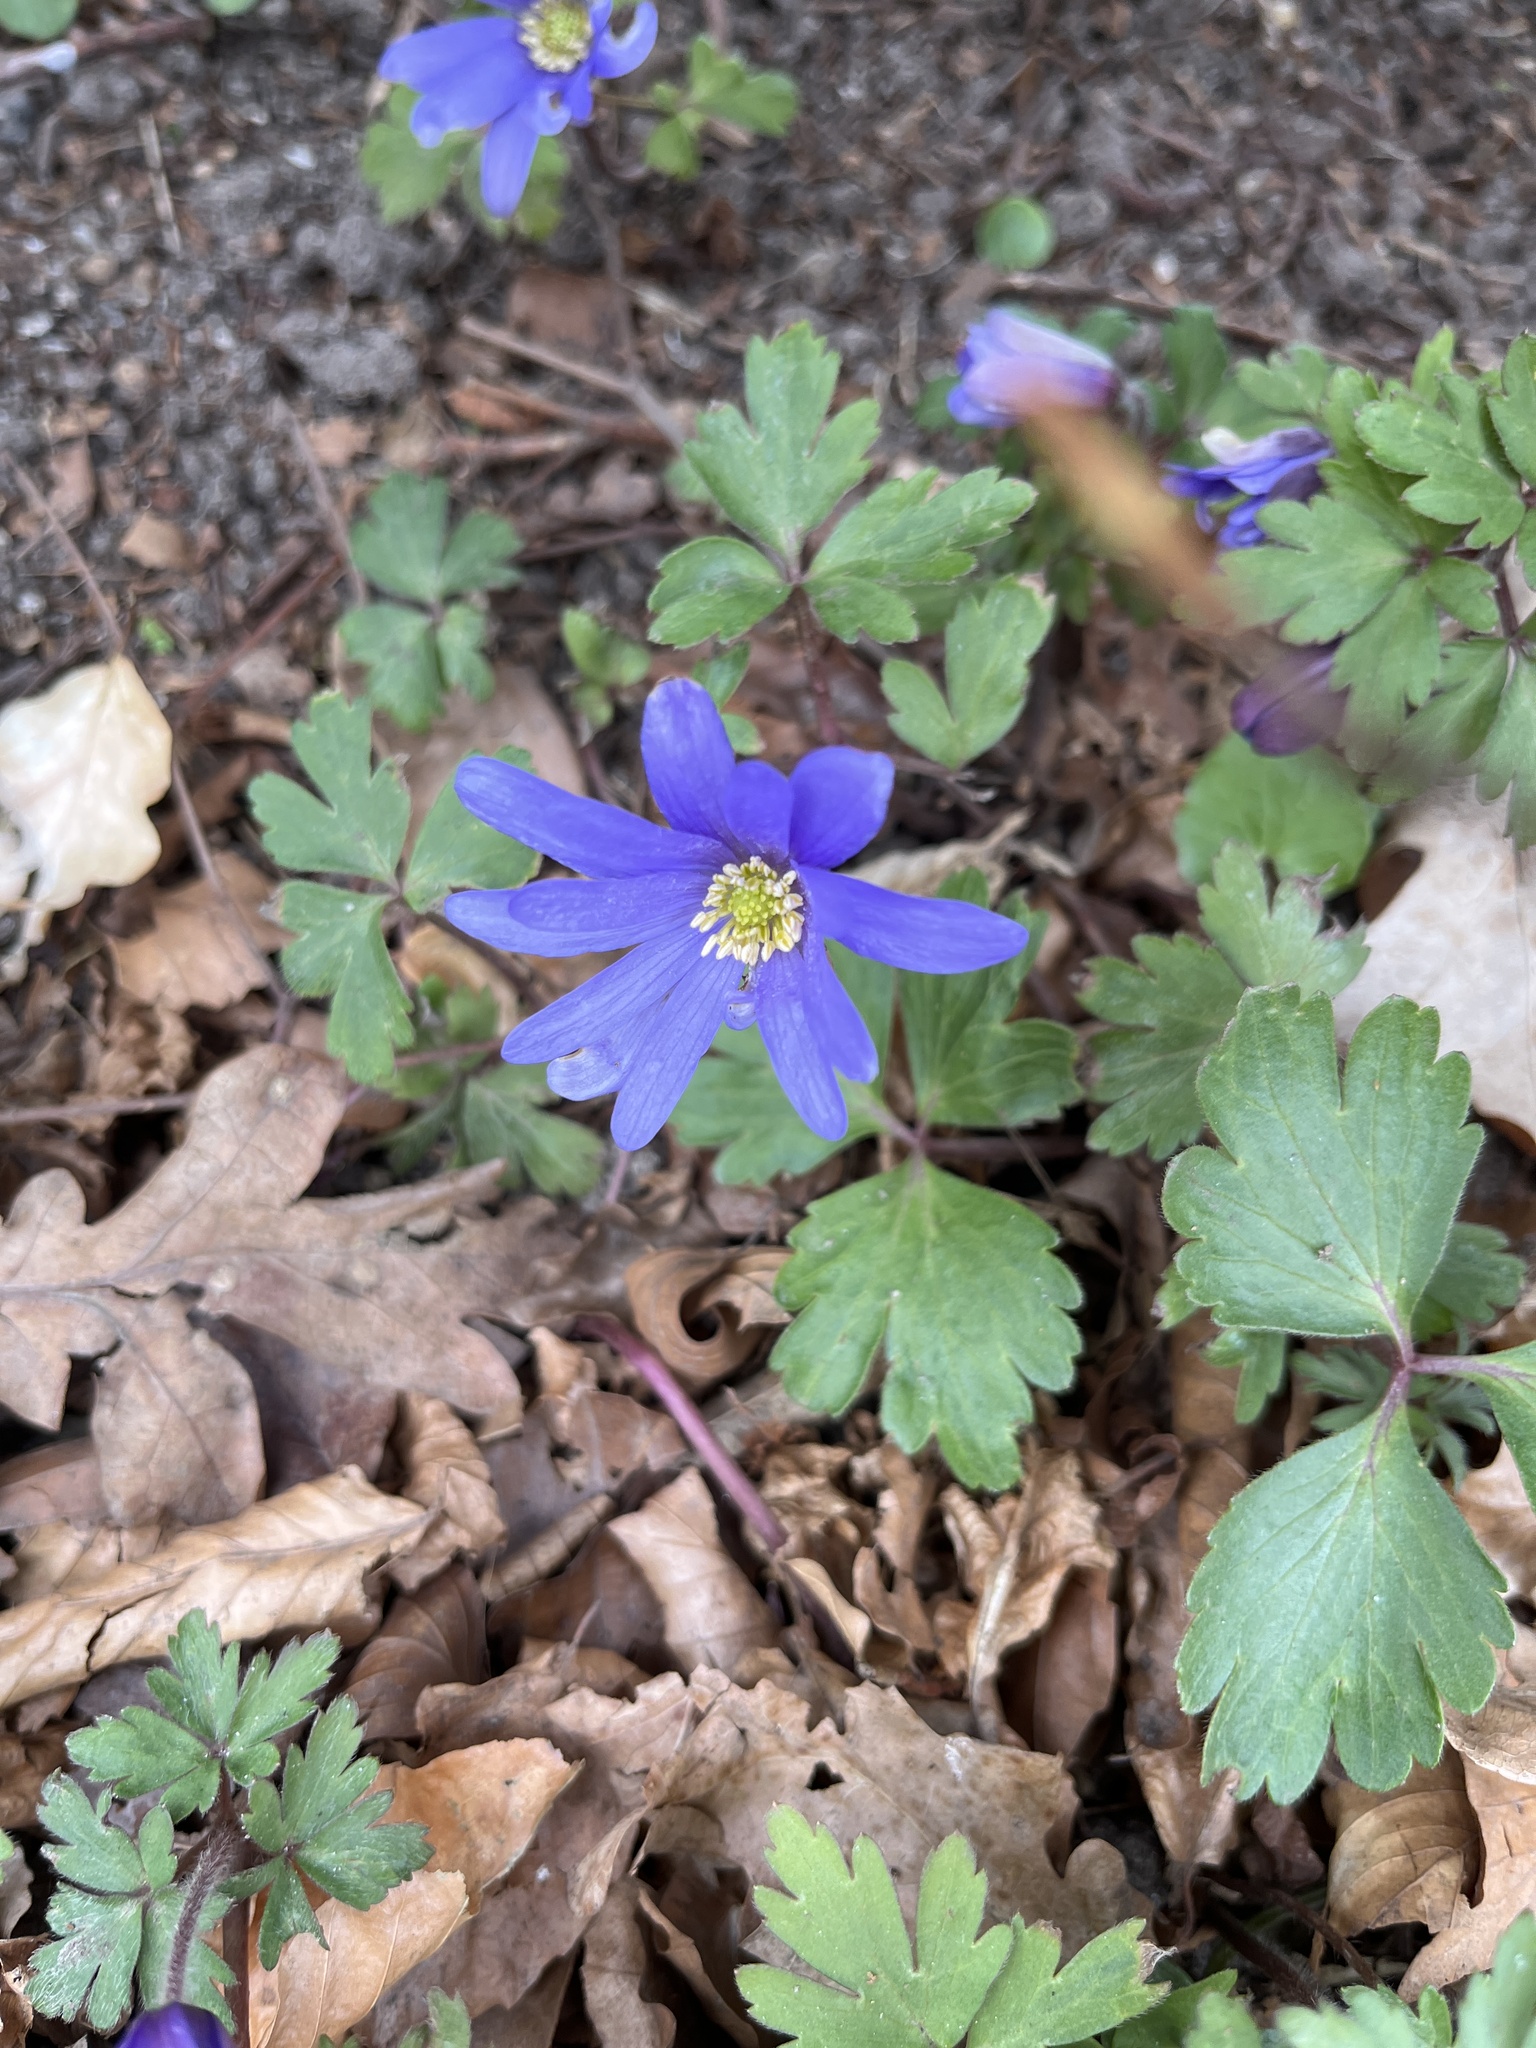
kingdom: Plantae
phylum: Tracheophyta
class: Magnoliopsida
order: Ranunculales
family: Ranunculaceae
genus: Anemone
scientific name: Anemone blanda
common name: Balkan anemone
